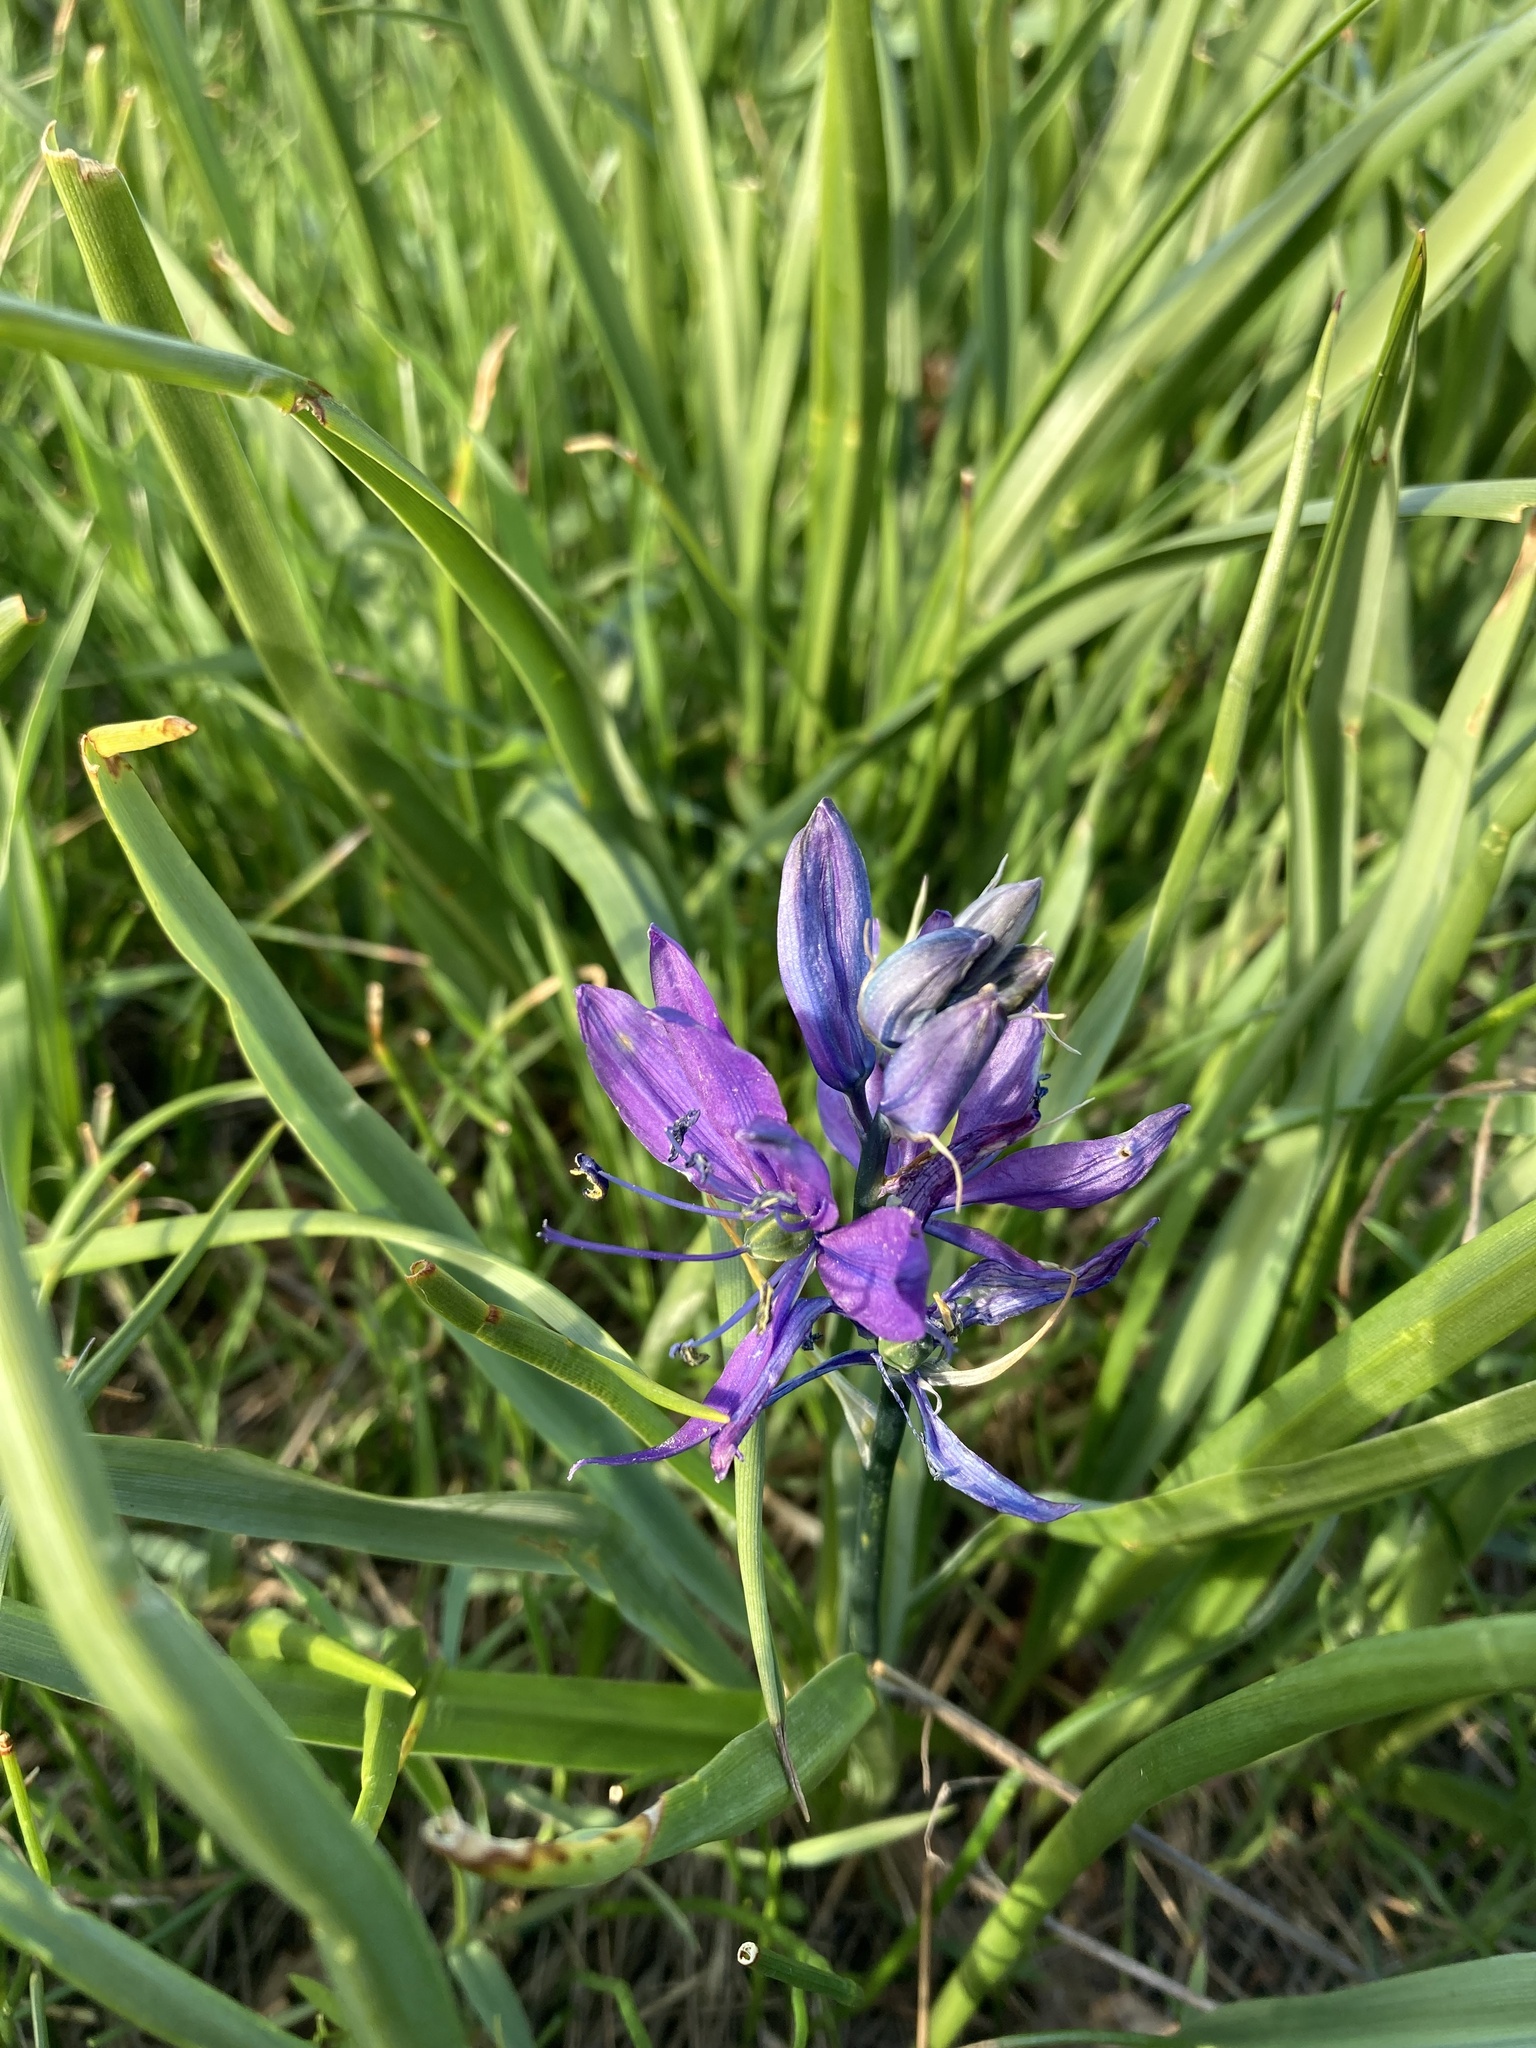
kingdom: Plantae
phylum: Tracheophyta
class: Liliopsida
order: Asparagales
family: Asparagaceae
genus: Camassia
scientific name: Camassia quamash
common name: Common camas
